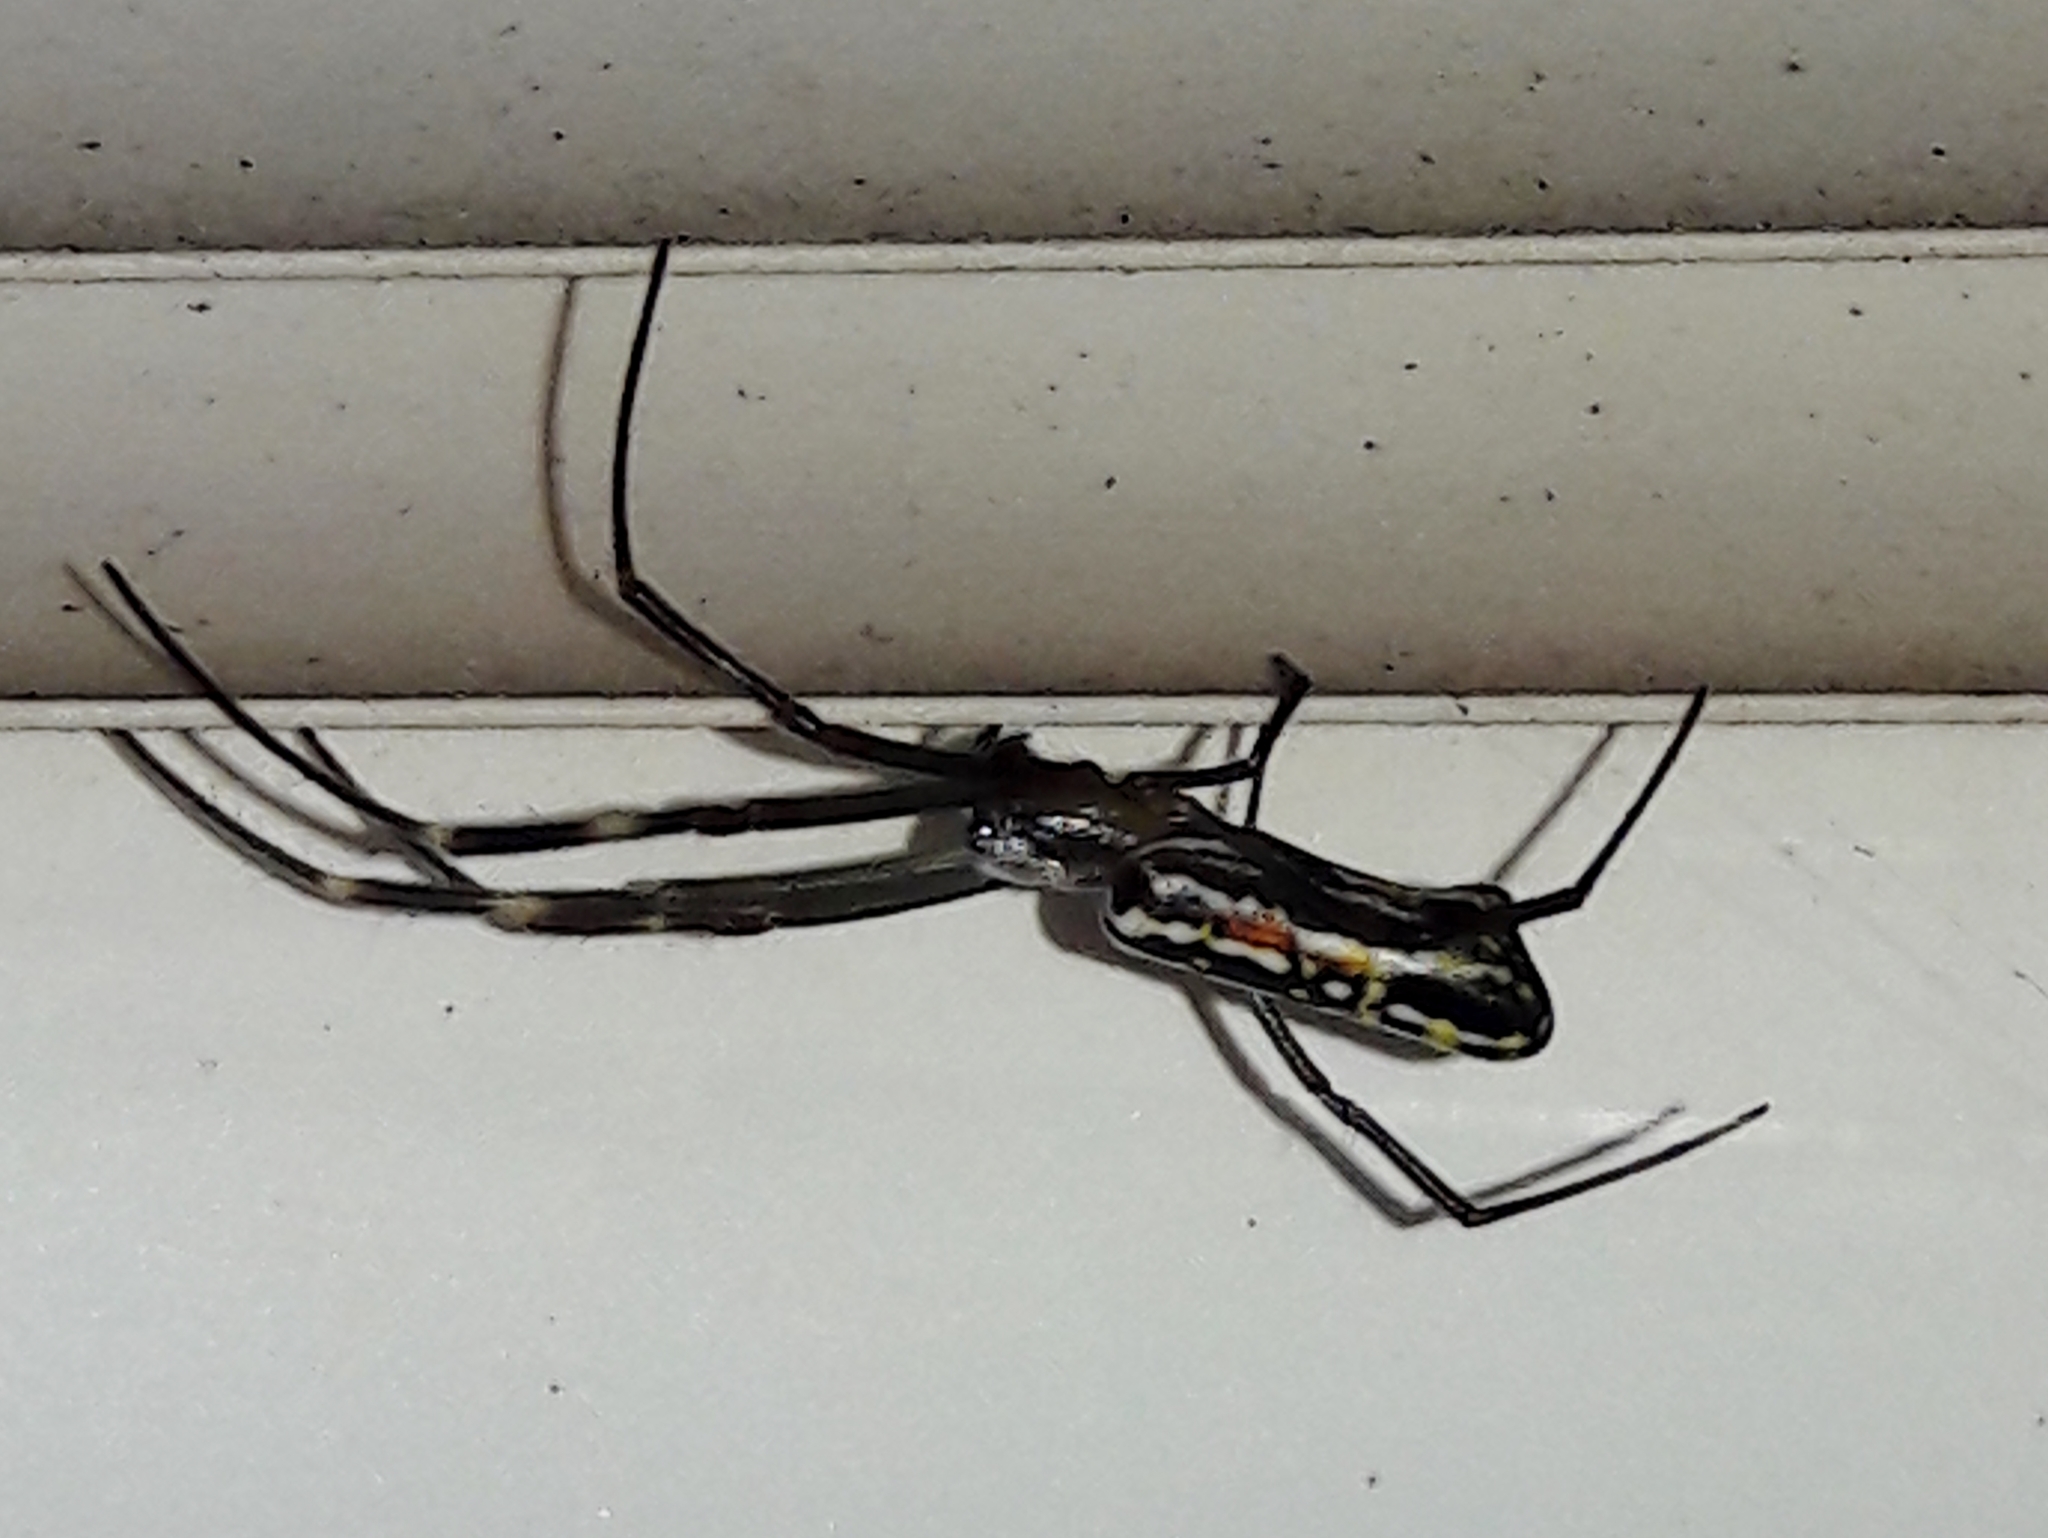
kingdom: Animalia
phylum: Arthropoda
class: Arachnida
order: Araneae
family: Araneidae
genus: Trichonephila
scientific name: Trichonephila clavipes
